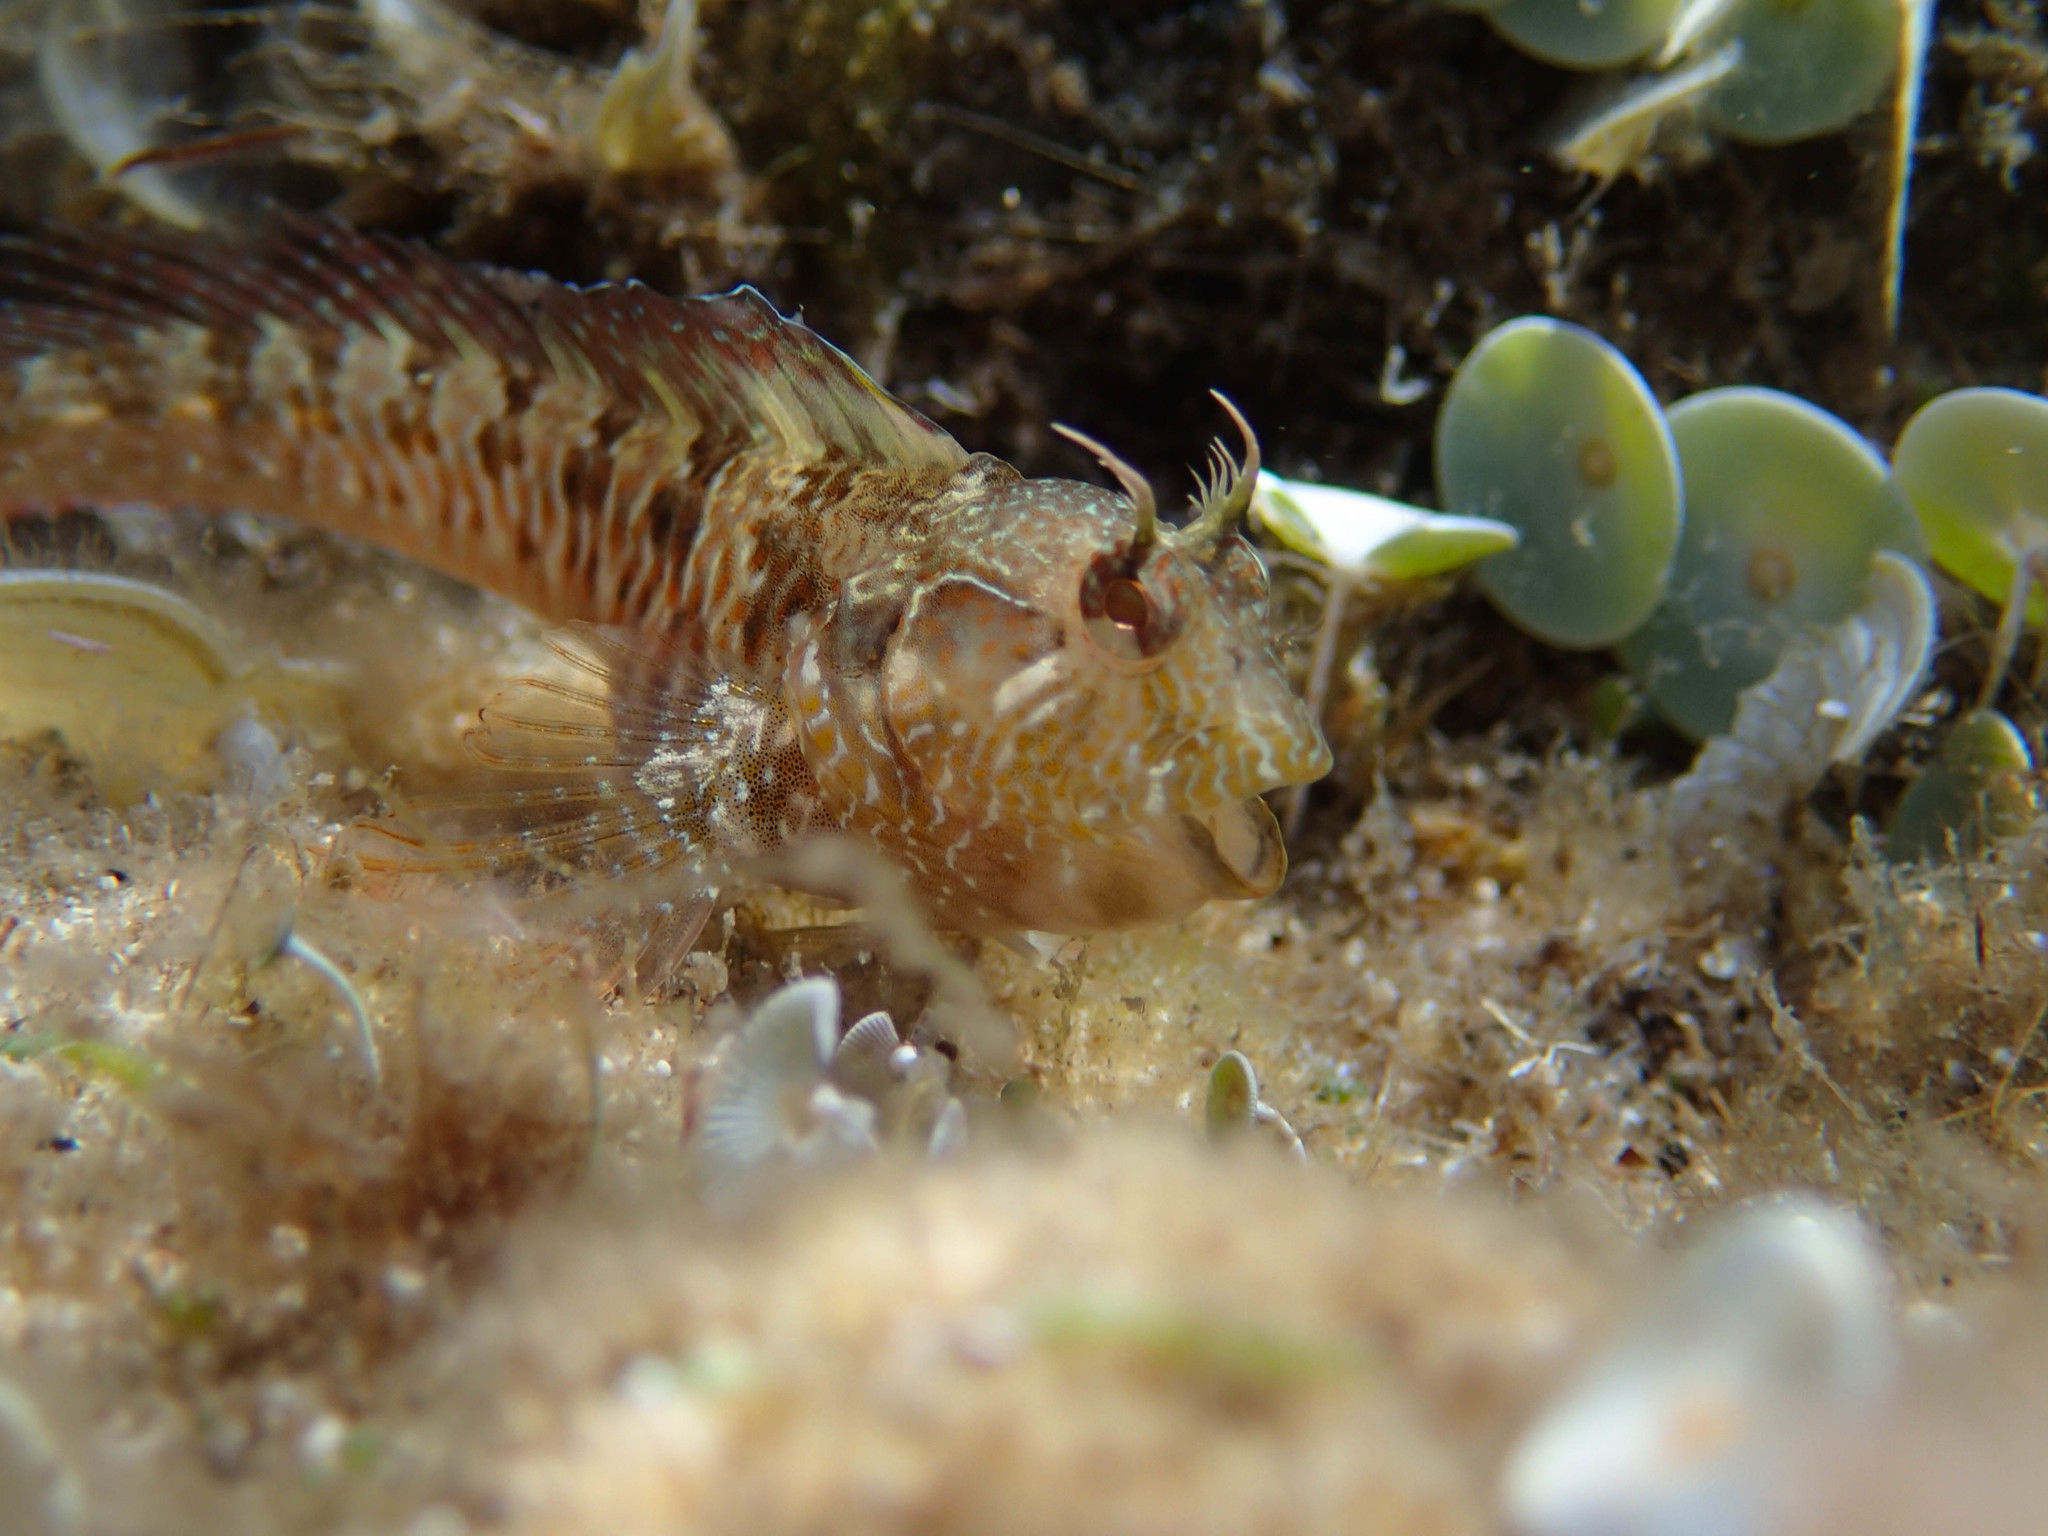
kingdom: Animalia
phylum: Chordata
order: Perciformes
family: Blenniidae
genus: Parablennius
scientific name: Parablennius incognitus
